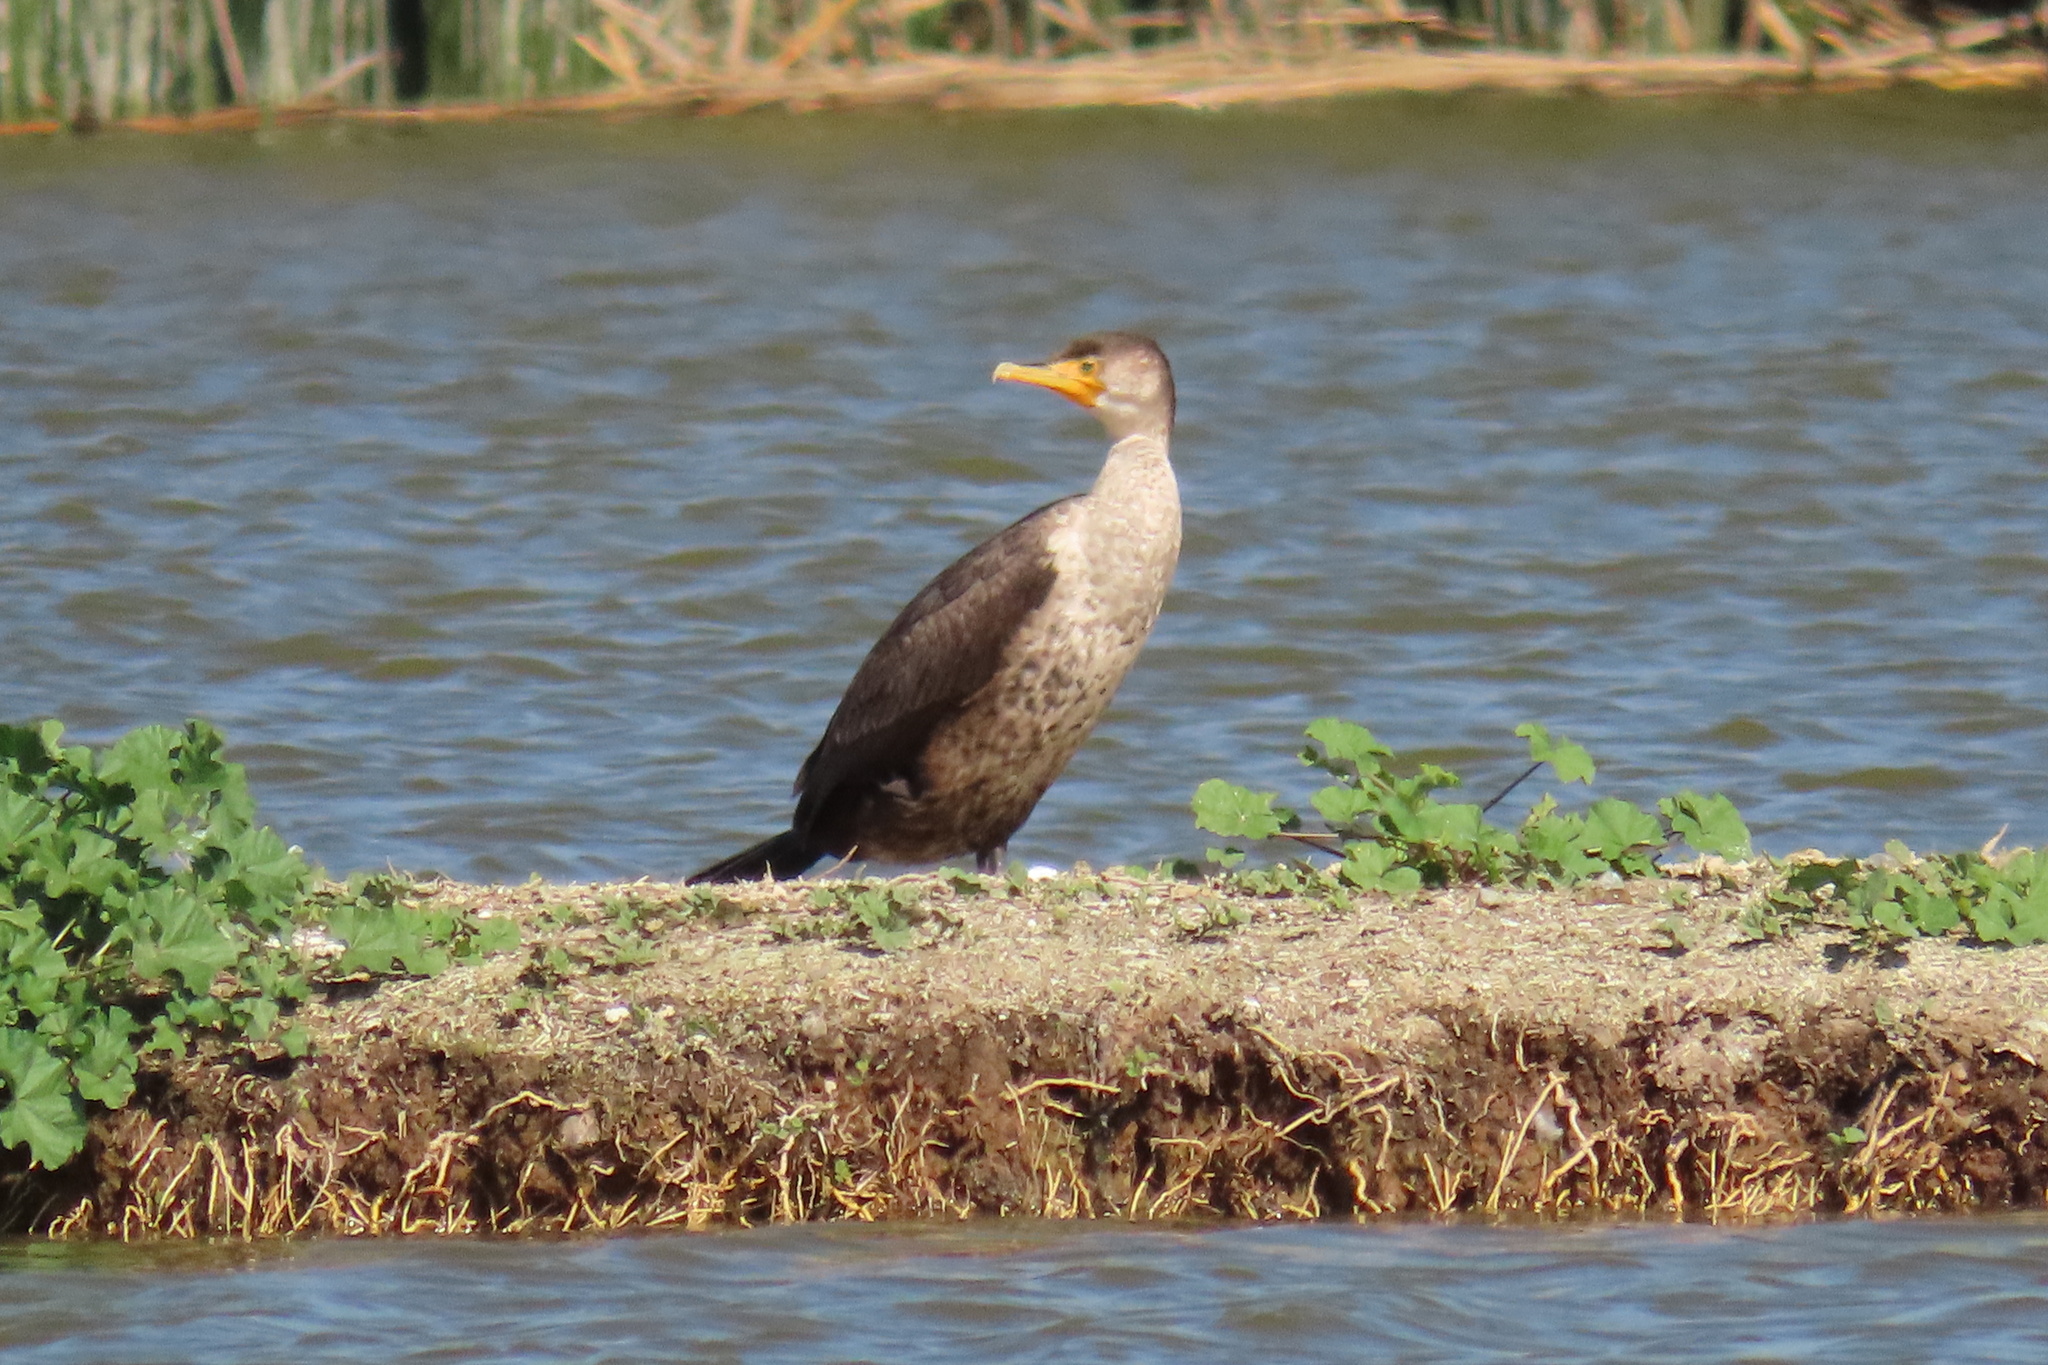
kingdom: Animalia
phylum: Chordata
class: Aves
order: Suliformes
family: Phalacrocoracidae
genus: Phalacrocorax
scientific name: Phalacrocorax auritus
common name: Double-crested cormorant
